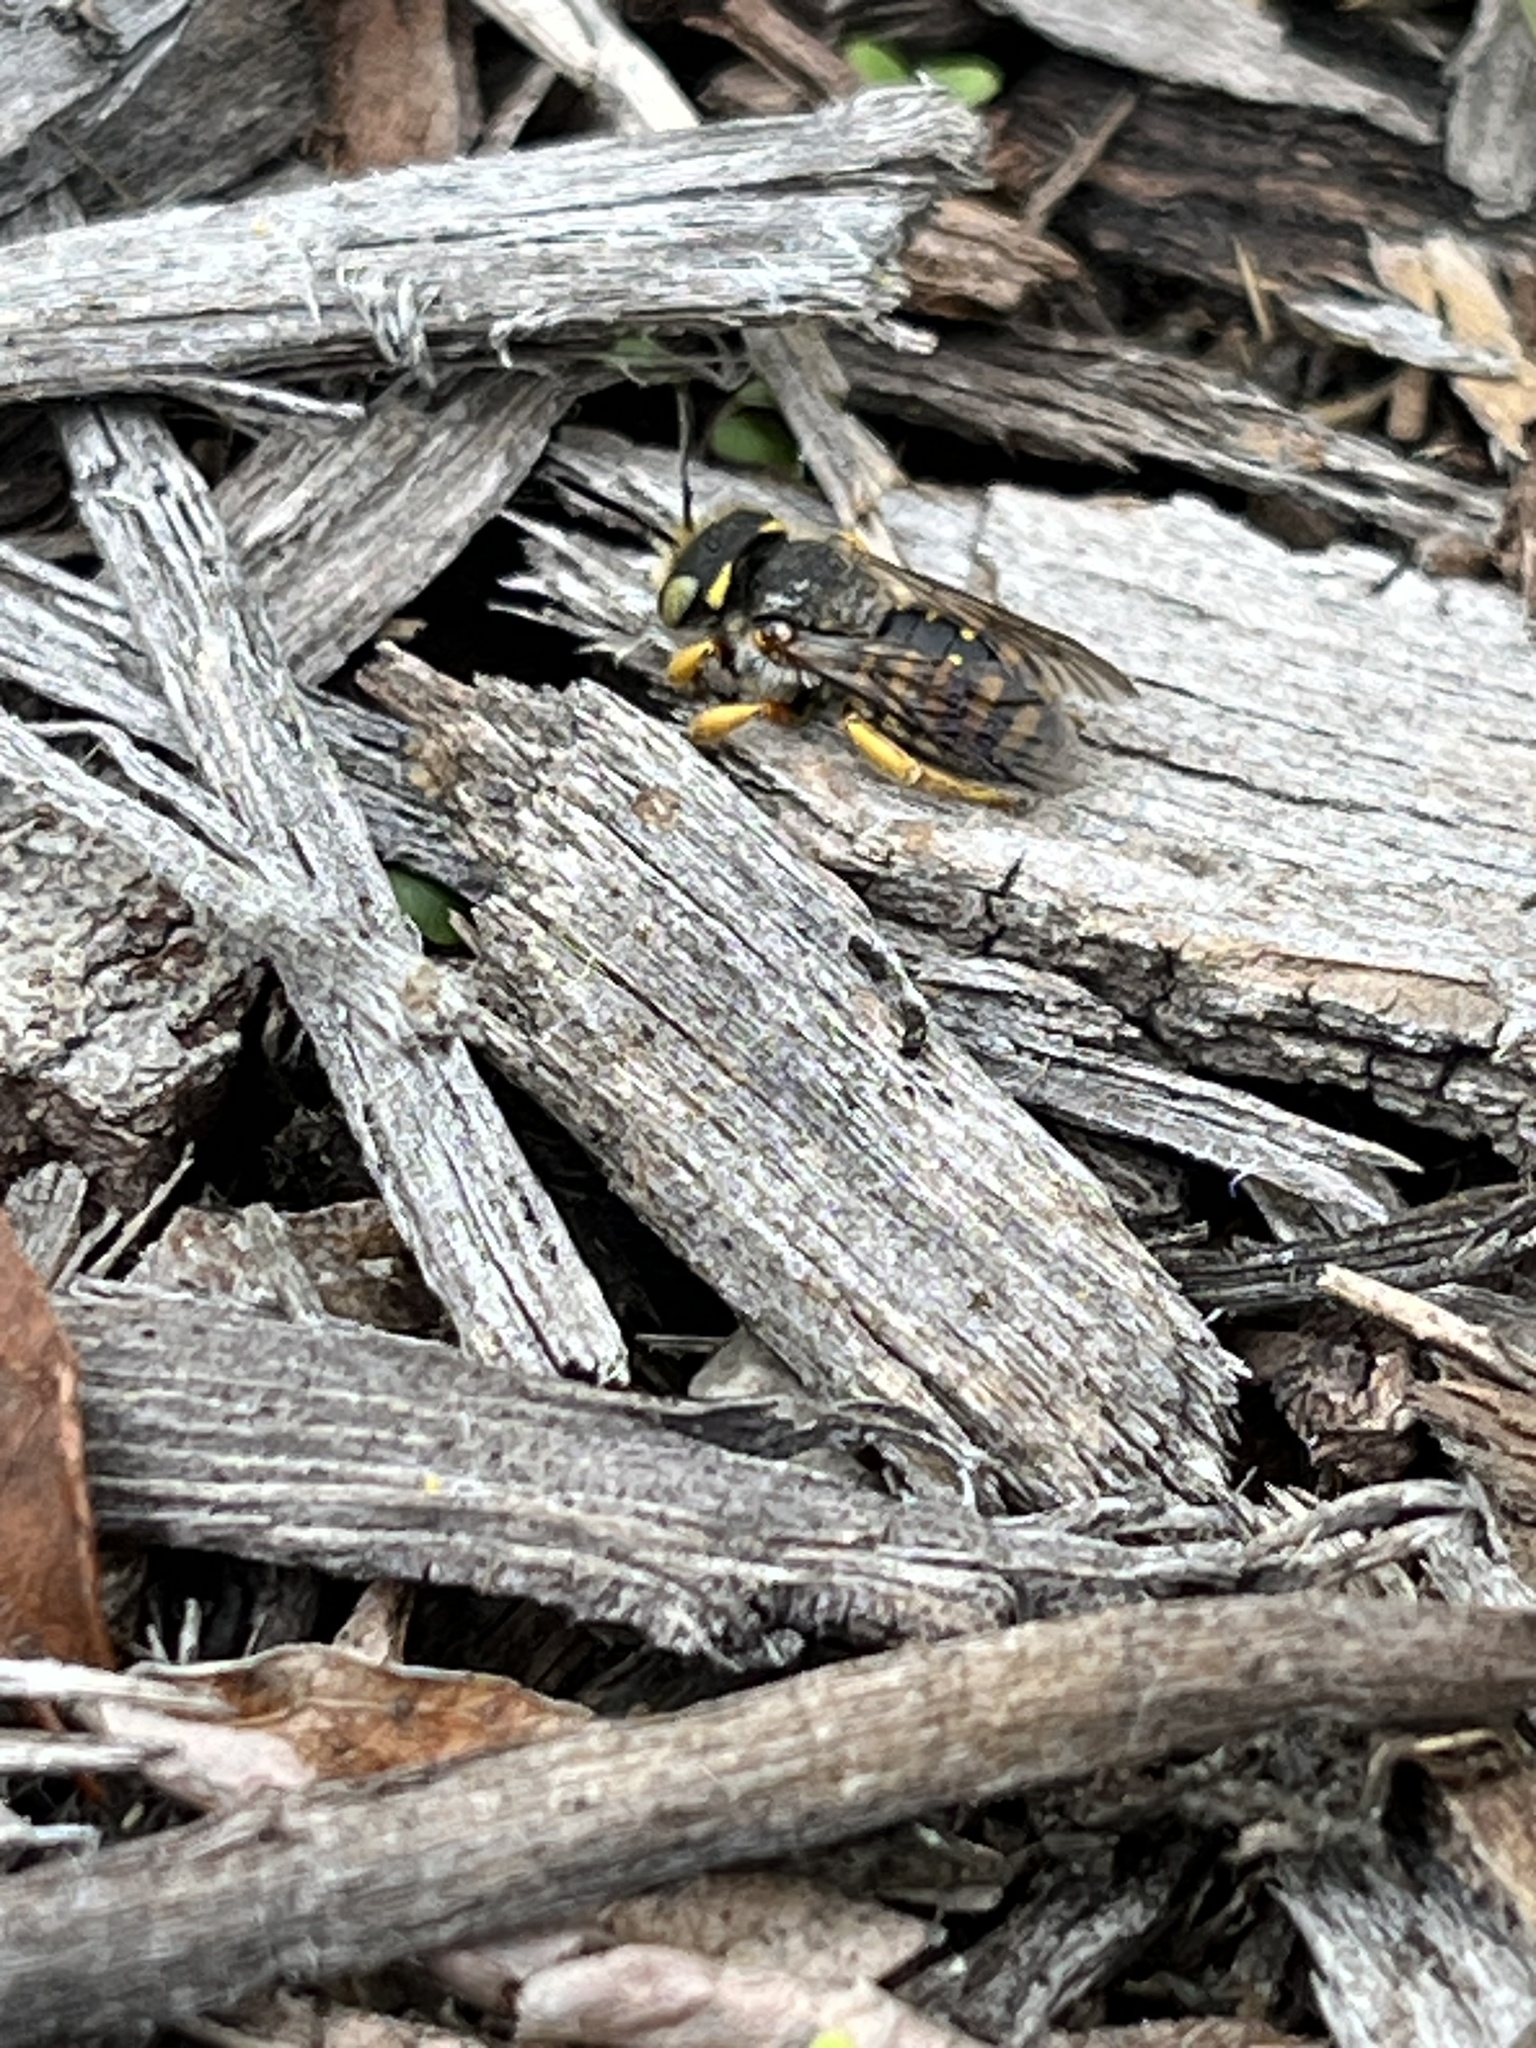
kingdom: Animalia
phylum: Arthropoda
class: Insecta
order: Hymenoptera
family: Megachilidae
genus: Anthidium
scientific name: Anthidium oblongatum
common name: Oblong wool carder bee
